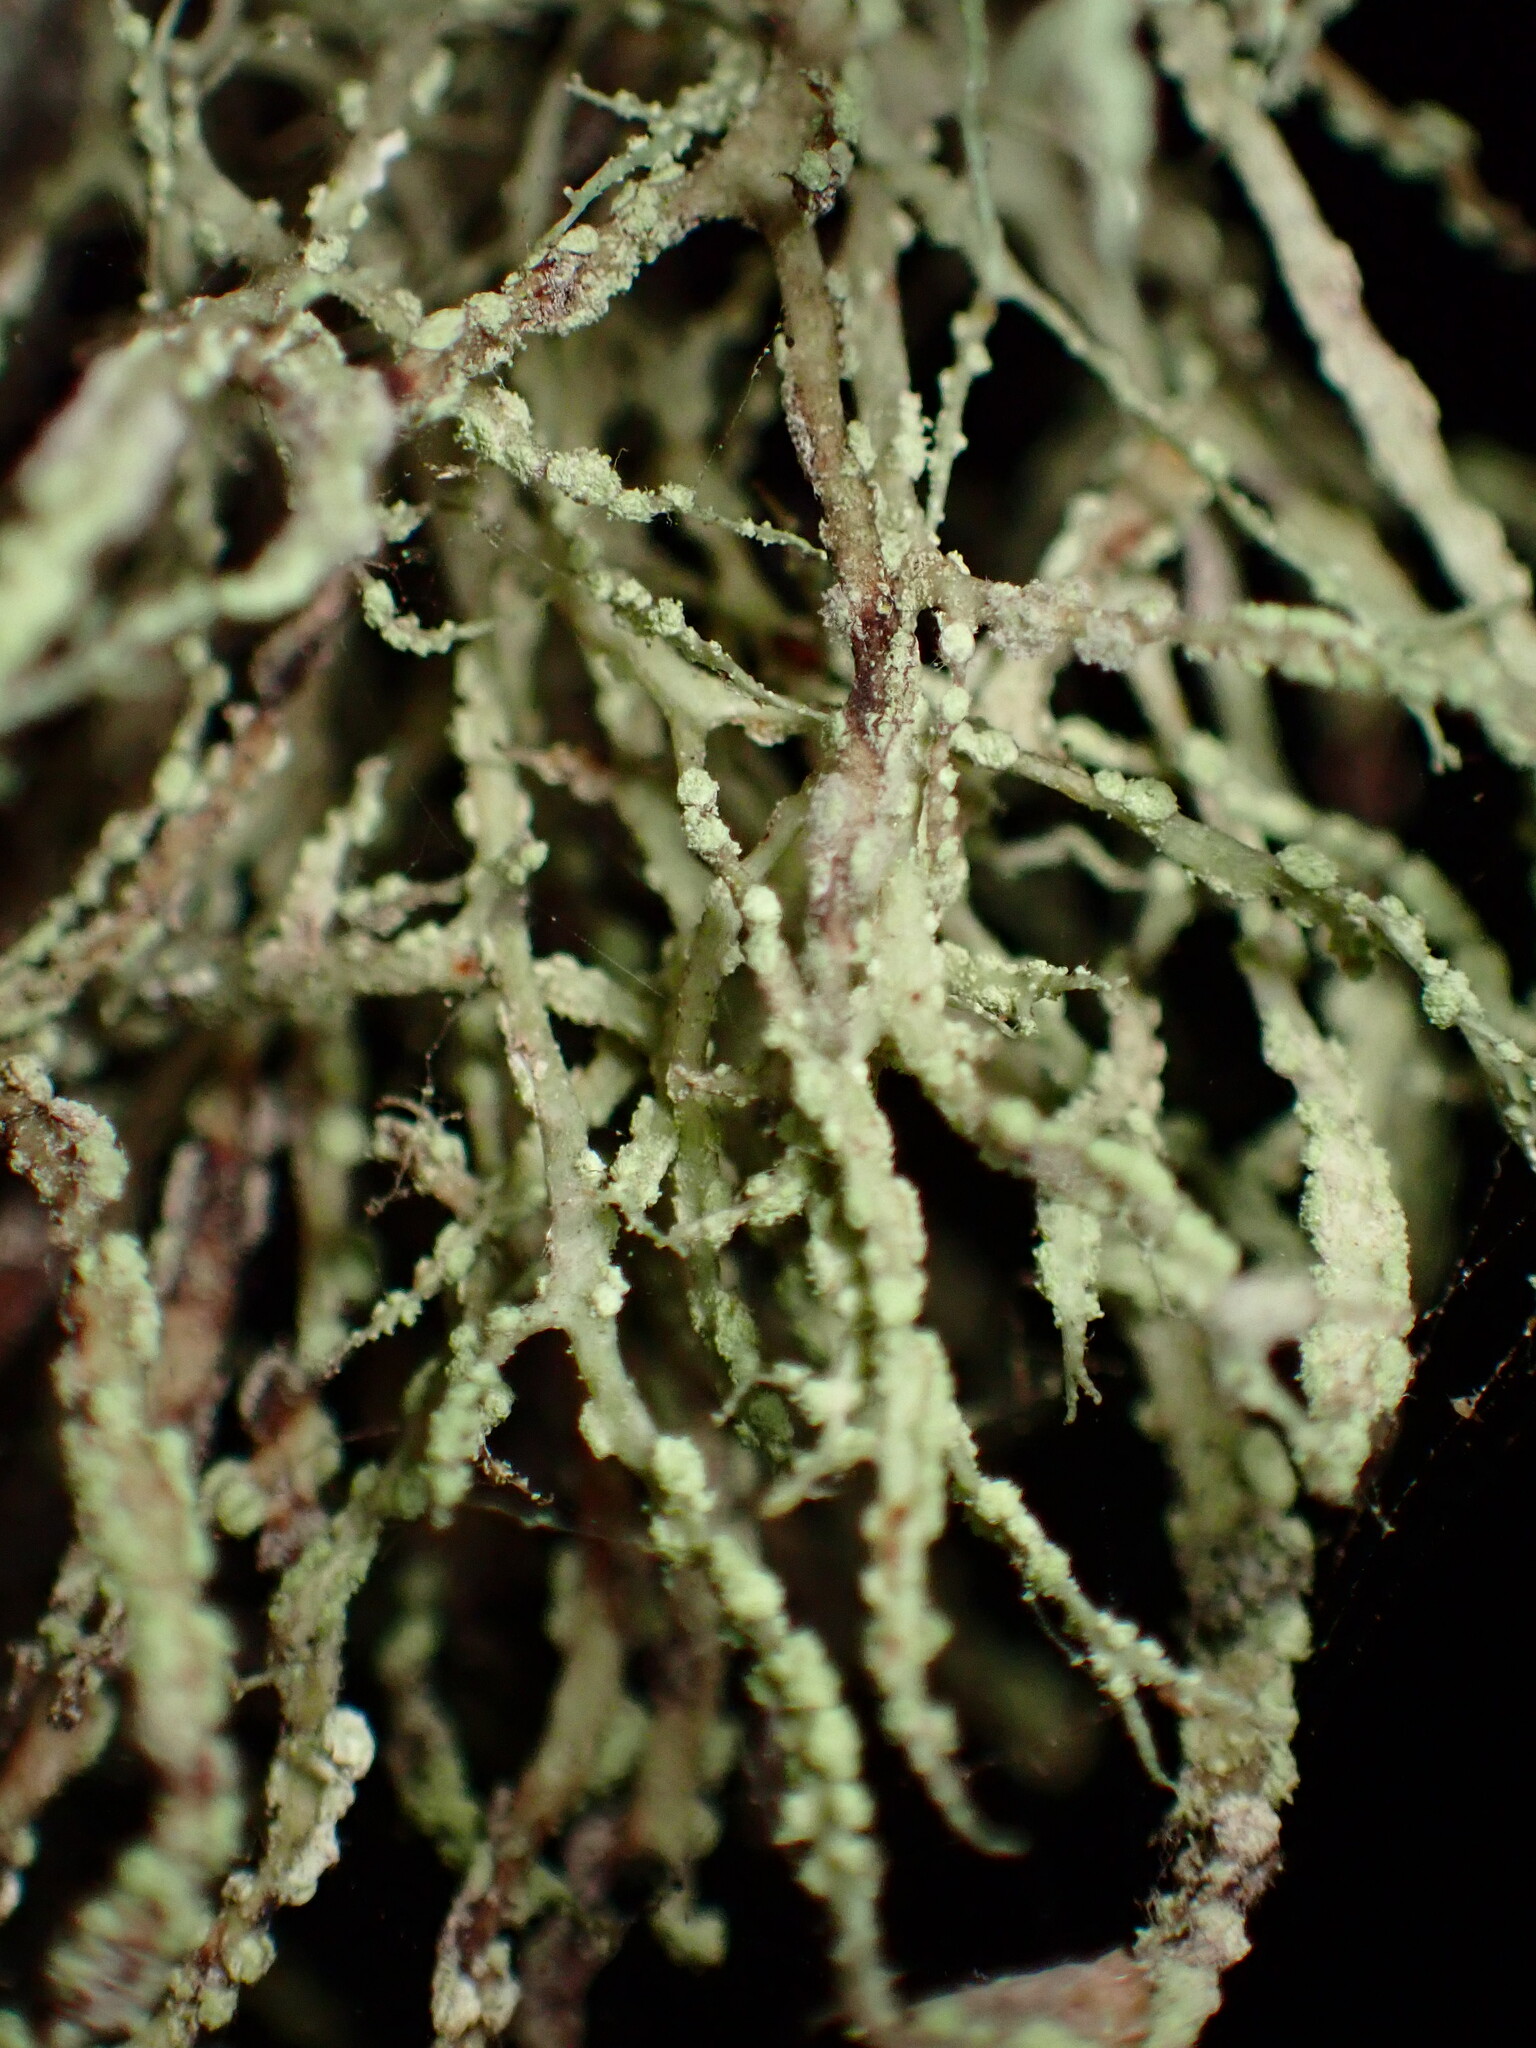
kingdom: Fungi
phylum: Ascomycota
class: Lecanoromycetes
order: Lecanorales
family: Ramalinaceae
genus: Ramalina
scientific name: Ramalina farinacea
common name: Farinose cartilage lichen
